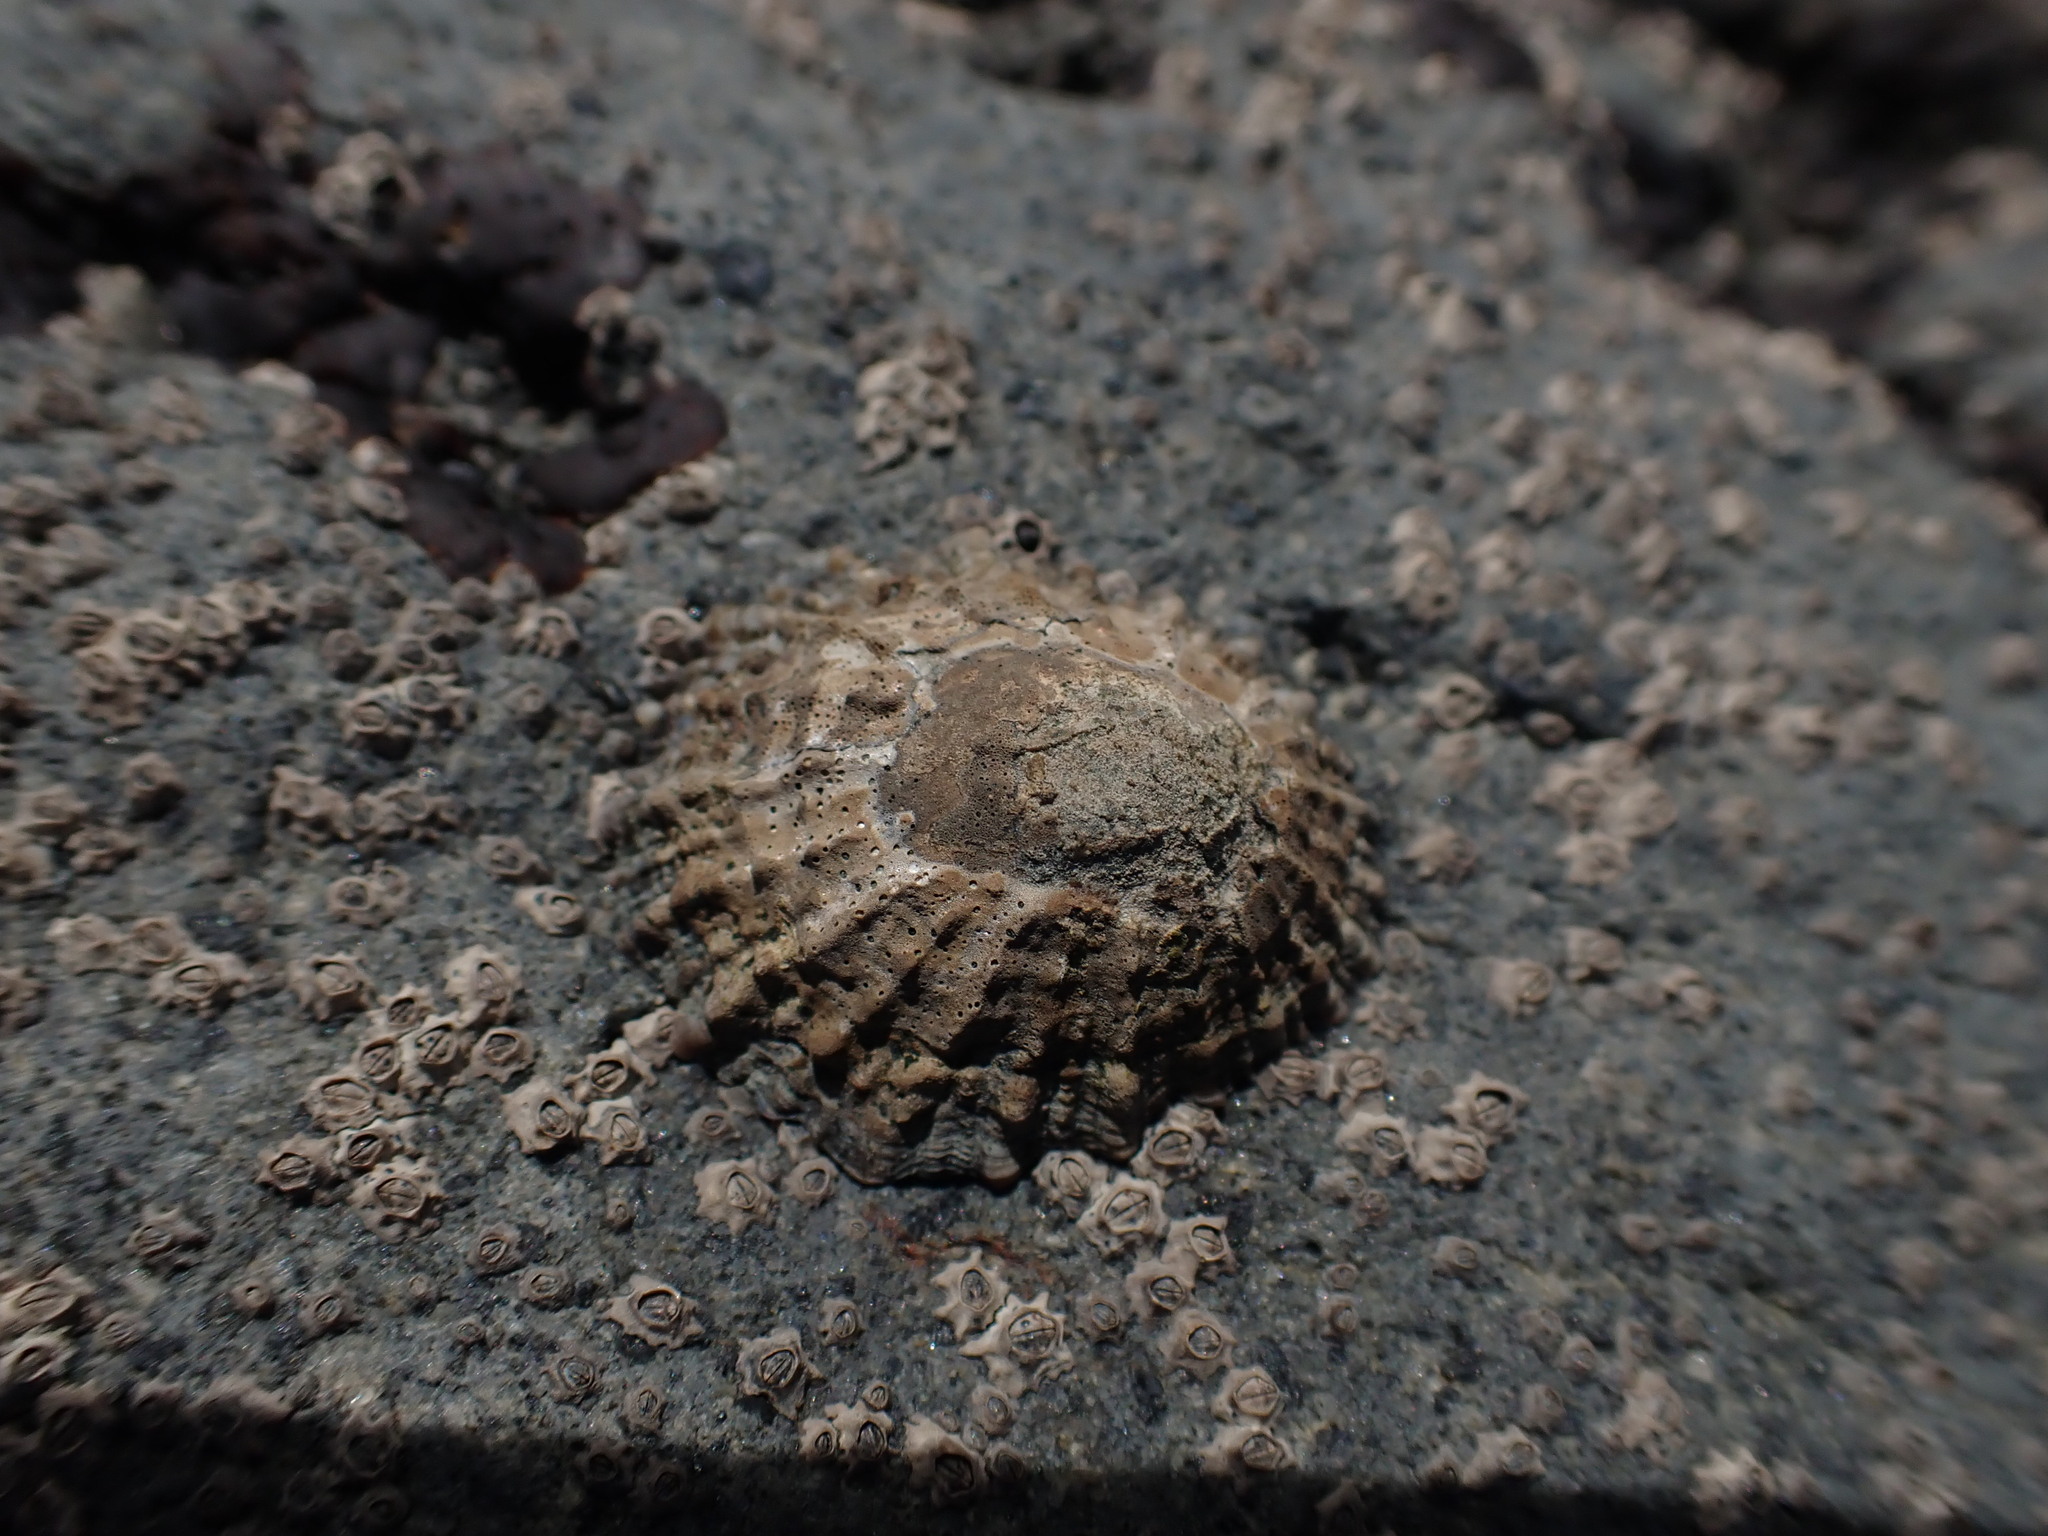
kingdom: Animalia
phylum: Mollusca
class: Gastropoda
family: Nacellidae
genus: Cellana
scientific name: Cellana ornata
